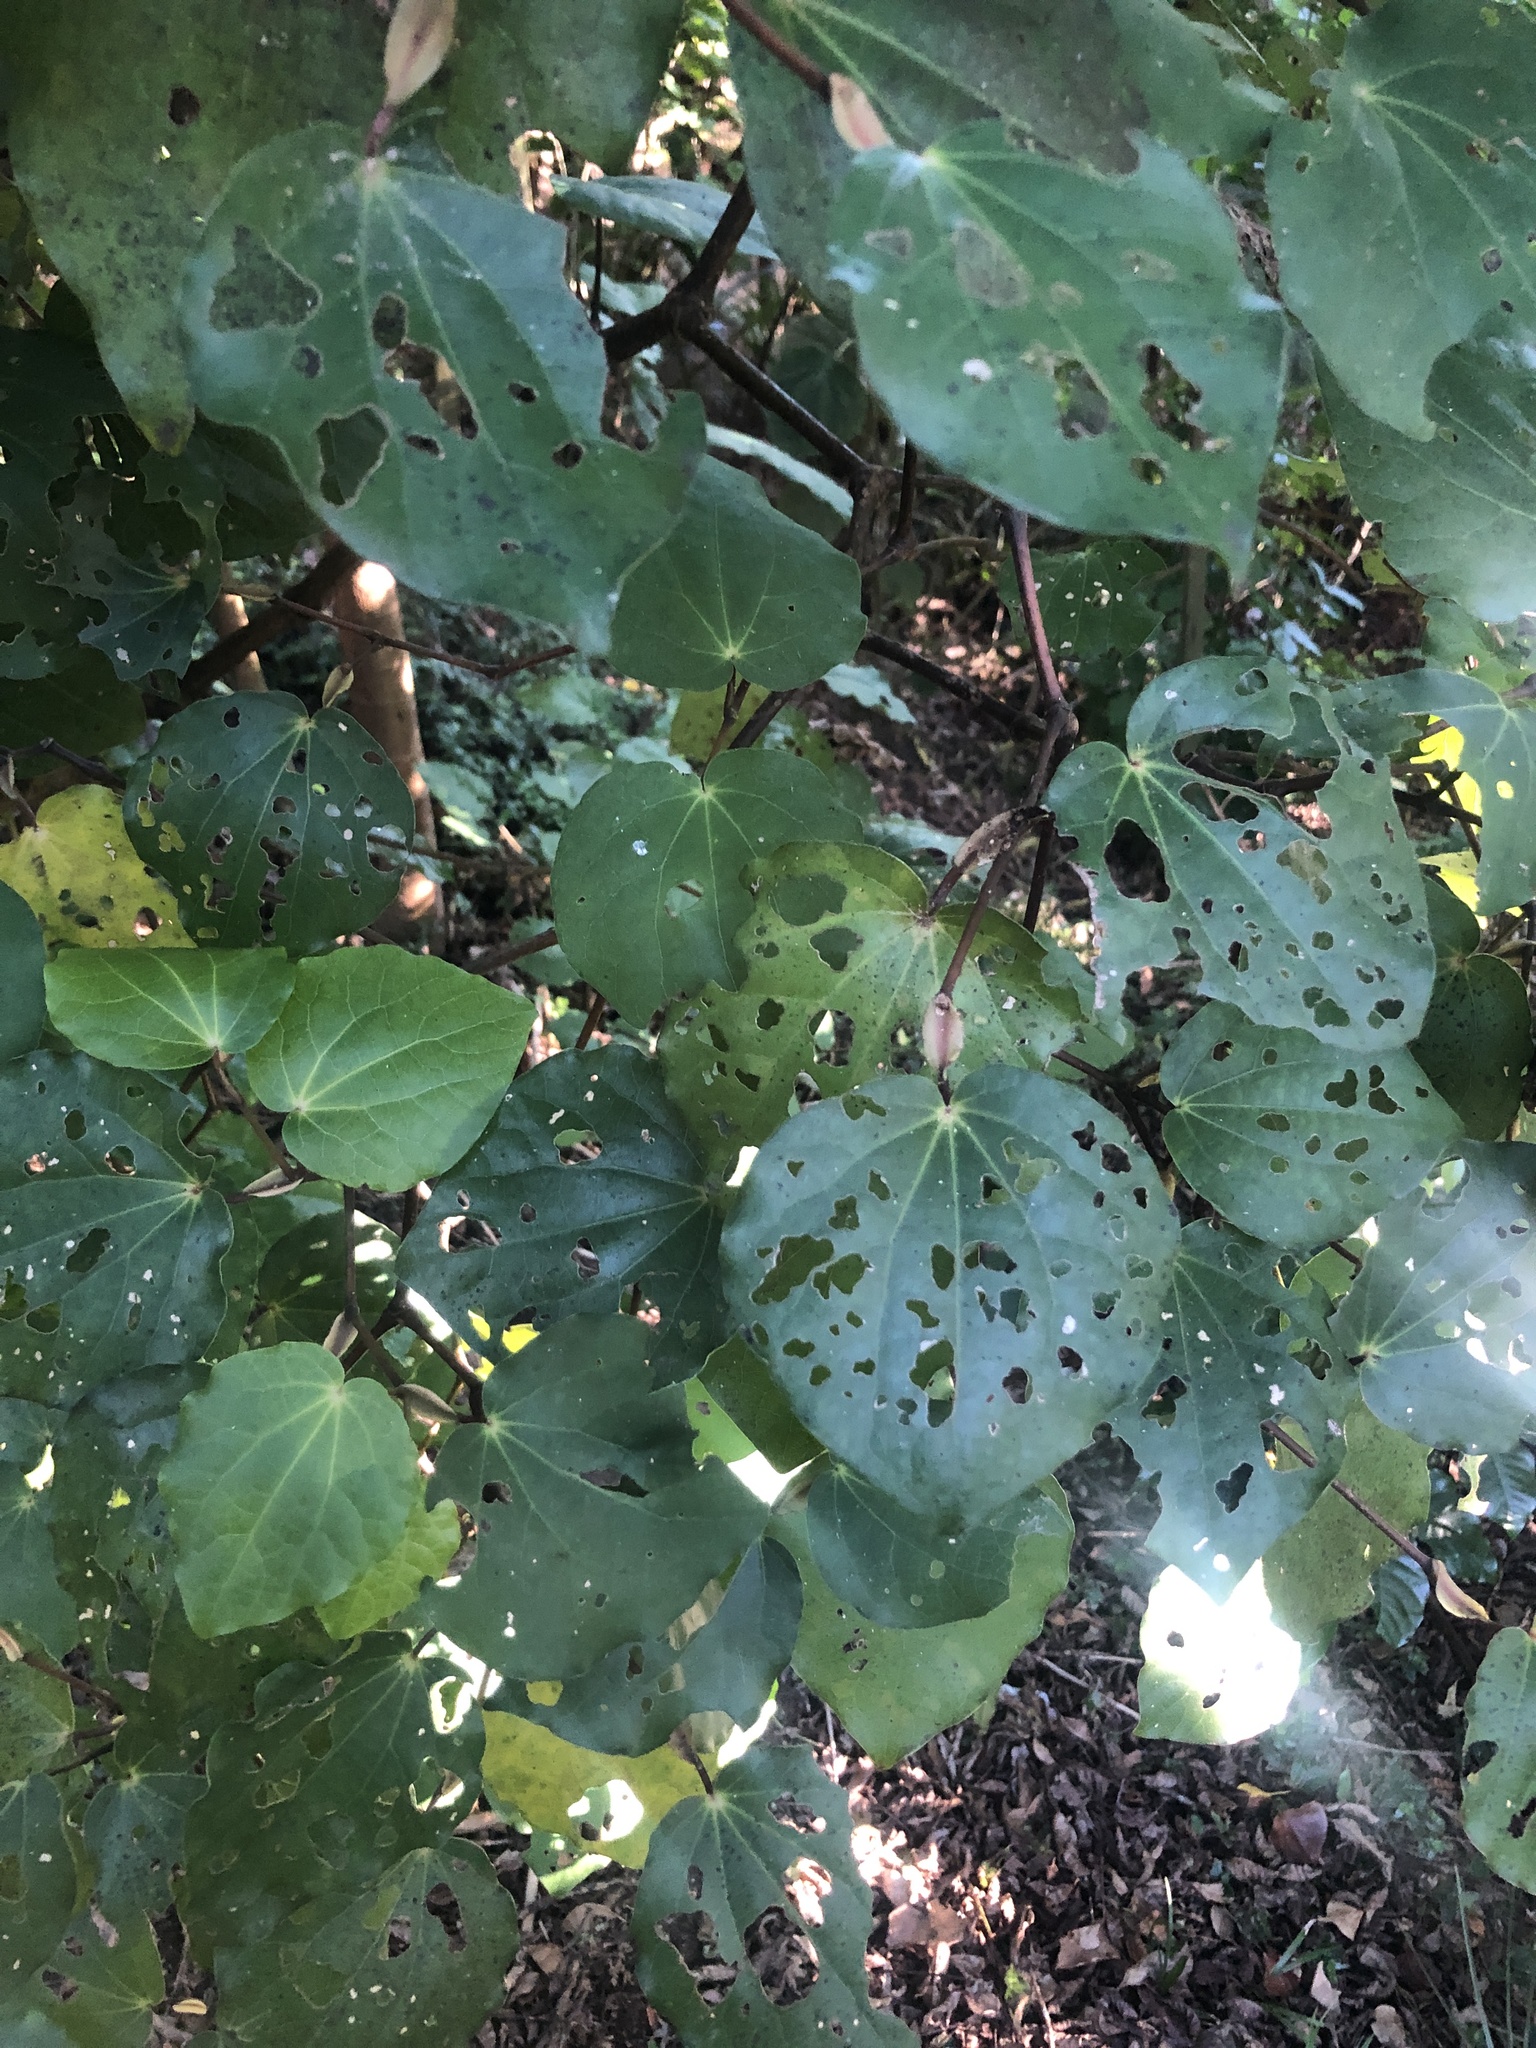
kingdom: Plantae
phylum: Tracheophyta
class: Magnoliopsida
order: Piperales
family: Piperaceae
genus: Macropiper
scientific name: Macropiper excelsum
